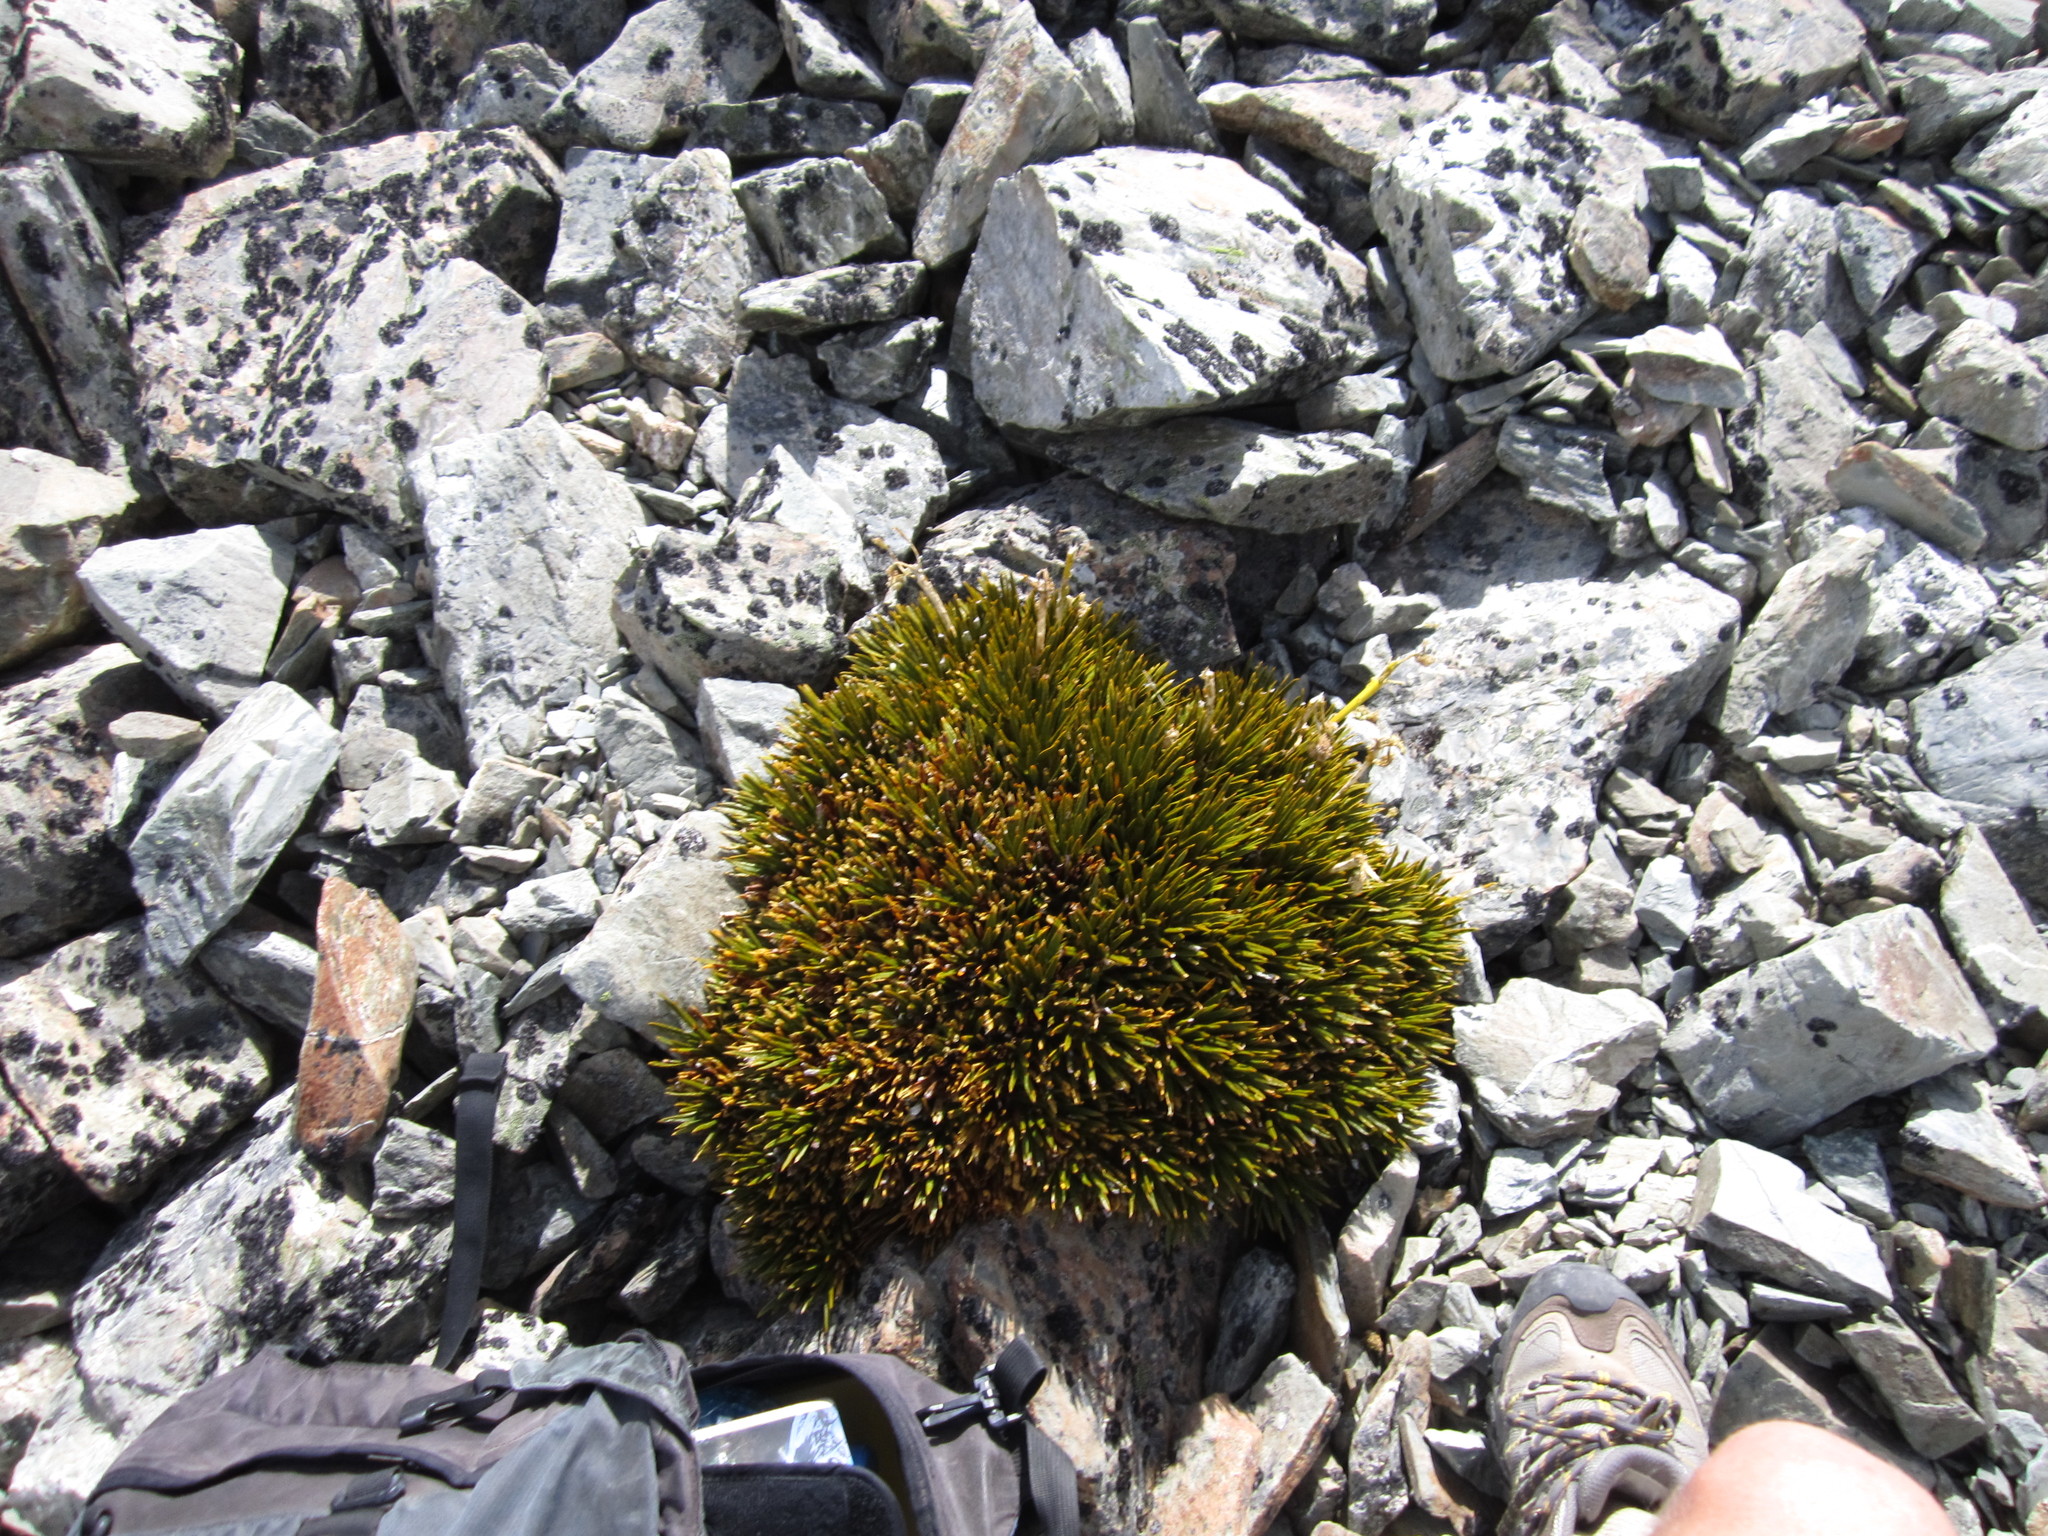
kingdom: Plantae
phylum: Tracheophyta
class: Magnoliopsida
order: Apiales
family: Apiaceae
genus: Aciphylla
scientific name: Aciphylla dobsonii
